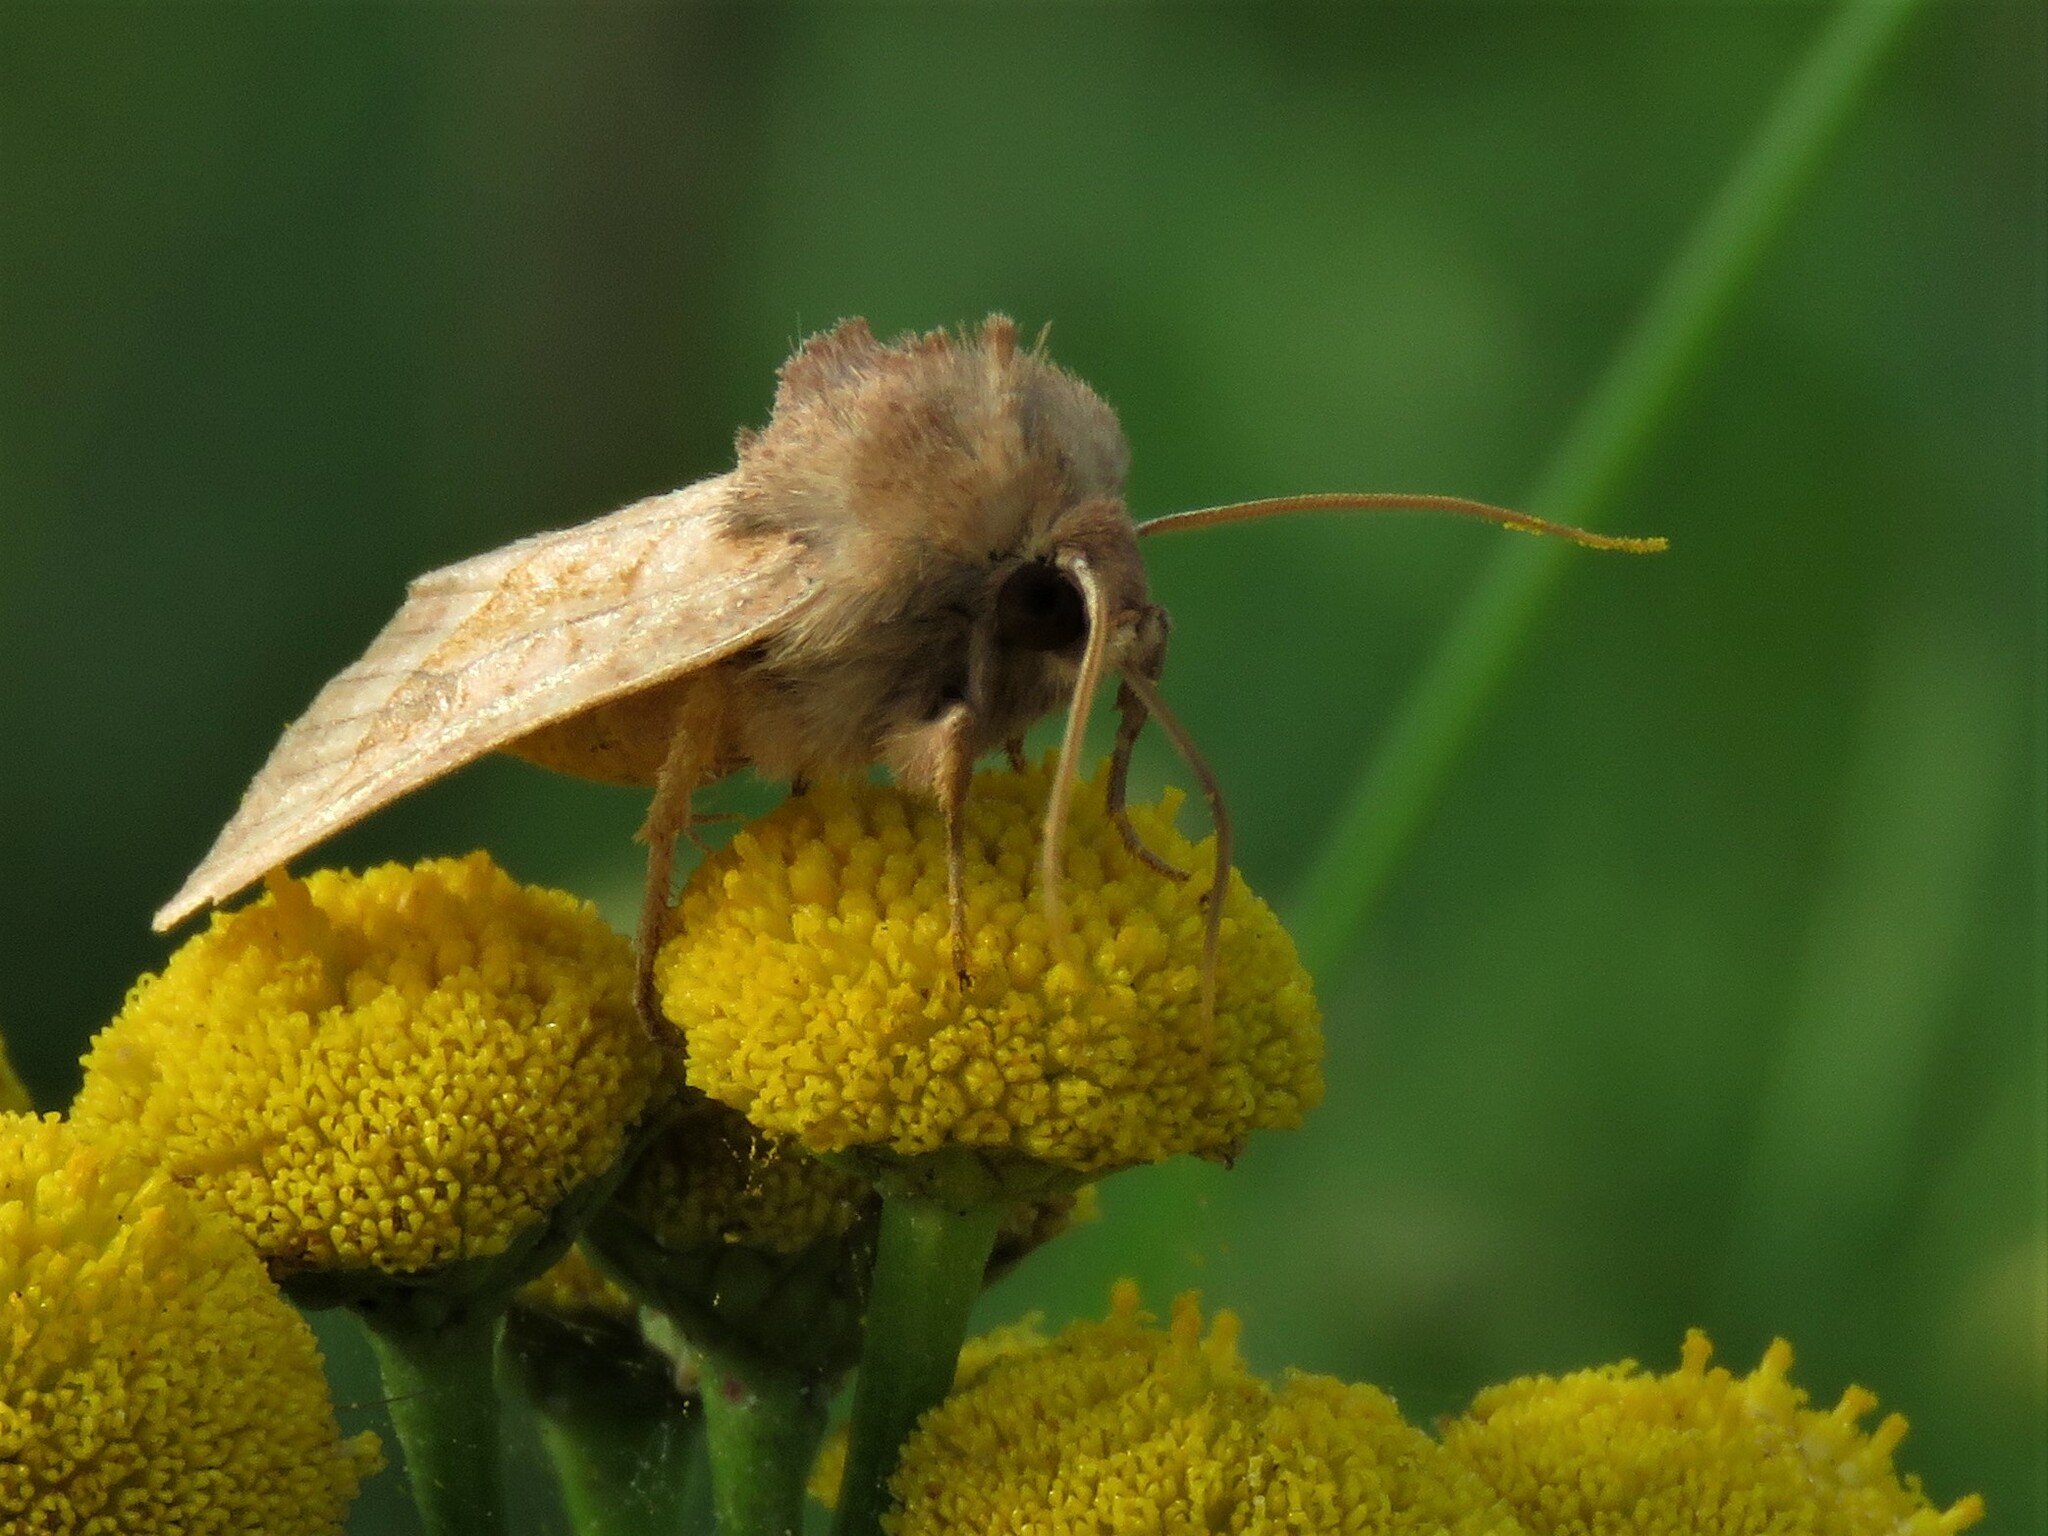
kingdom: Animalia
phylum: Arthropoda
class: Insecta
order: Lepidoptera
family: Noctuidae
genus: Hydraecia
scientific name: Hydraecia micacea
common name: Rosy rustic
